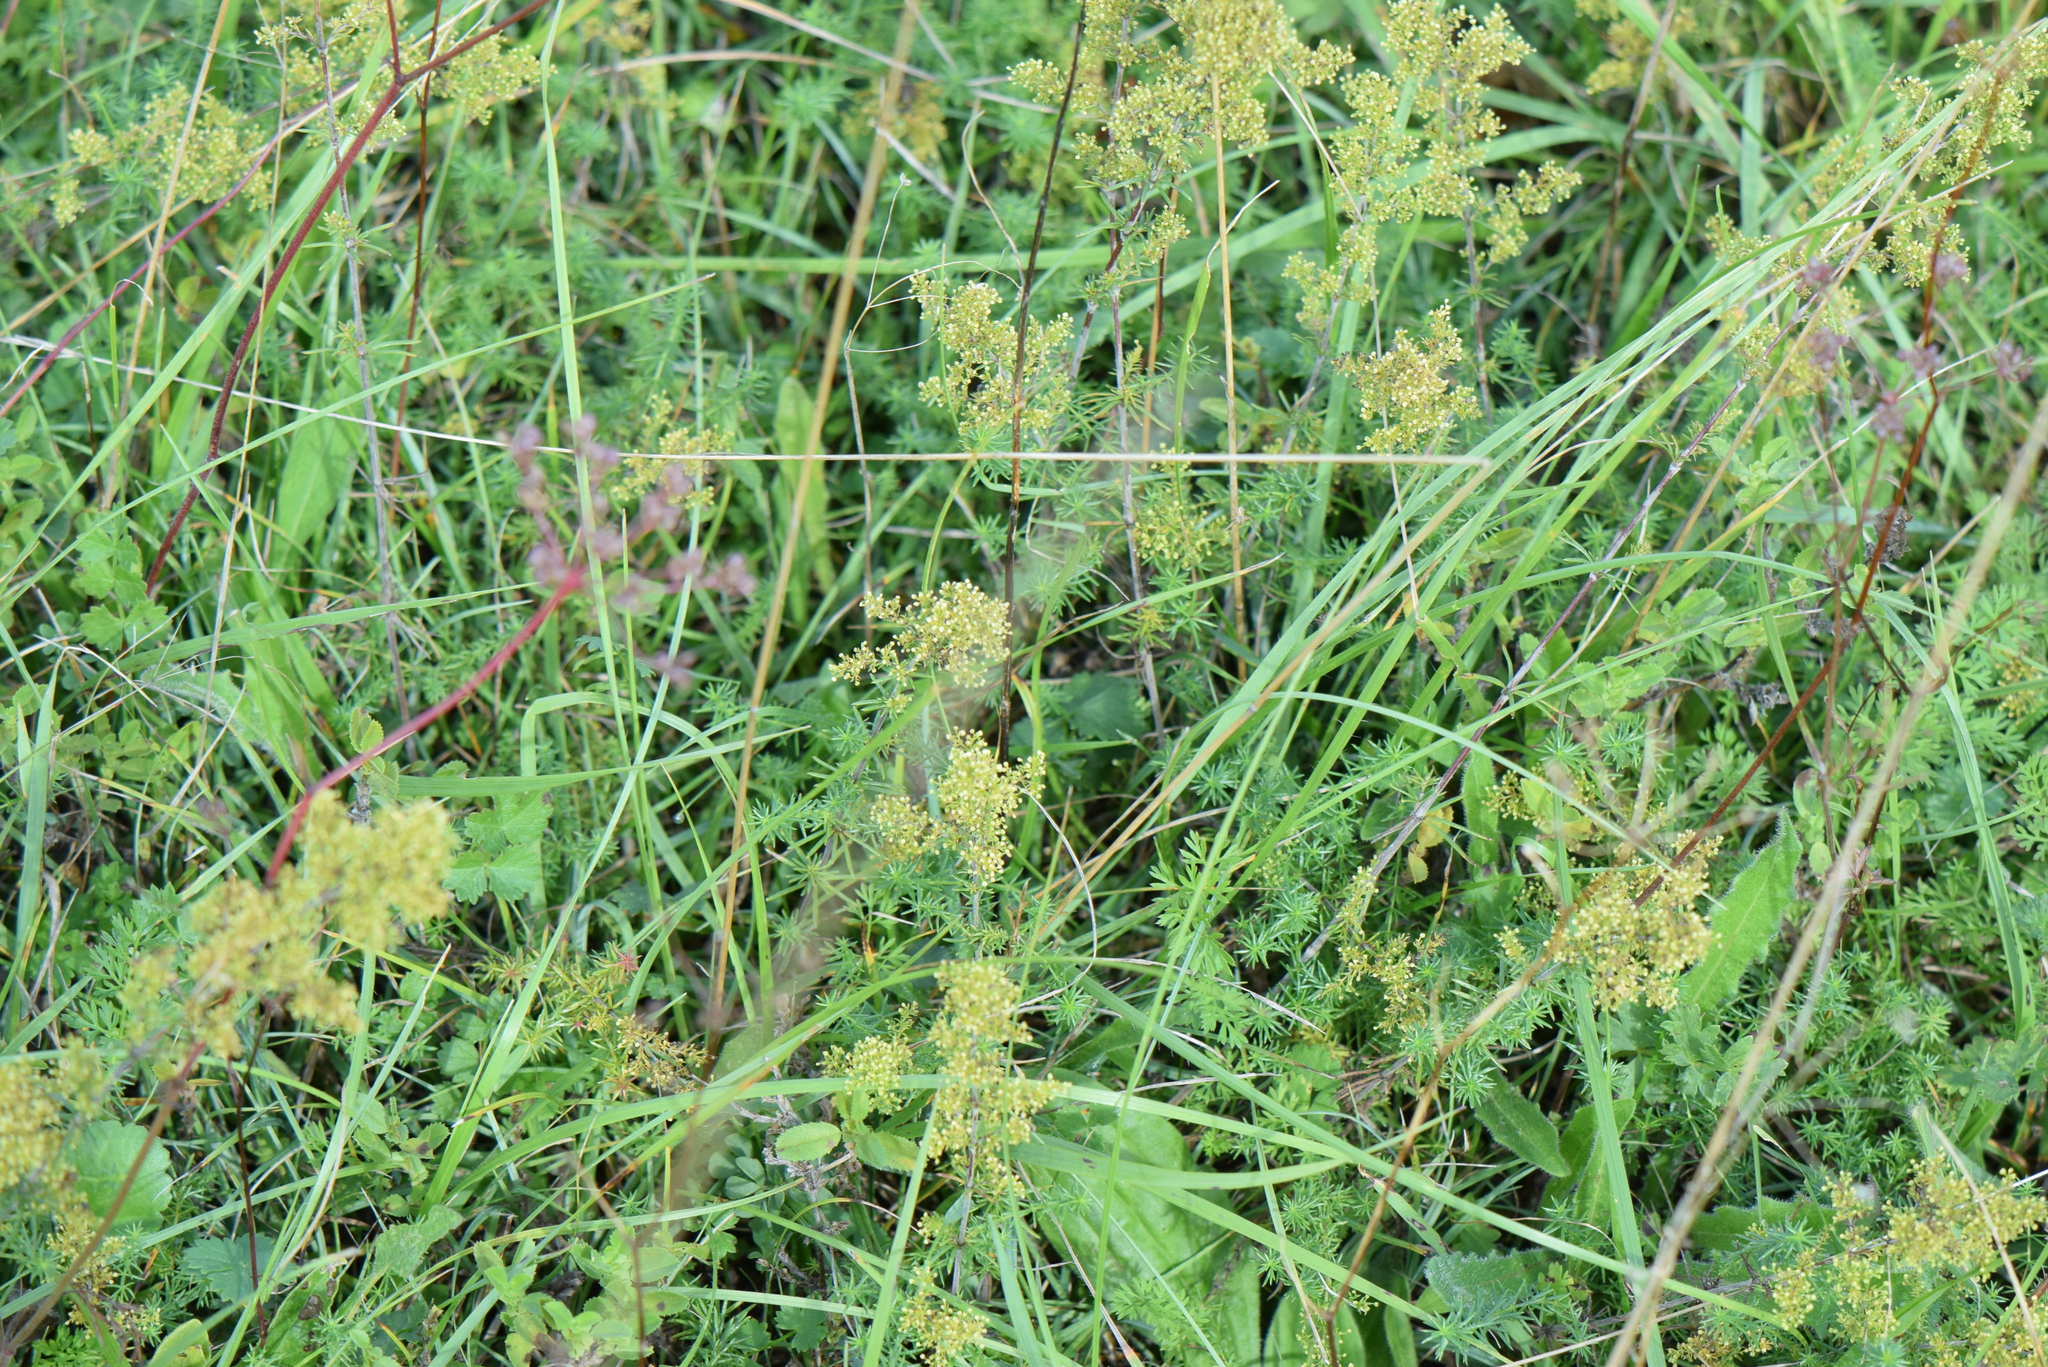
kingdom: Plantae
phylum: Tracheophyta
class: Magnoliopsida
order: Gentianales
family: Rubiaceae
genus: Galium
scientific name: Galium verum
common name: Lady's bedstraw
